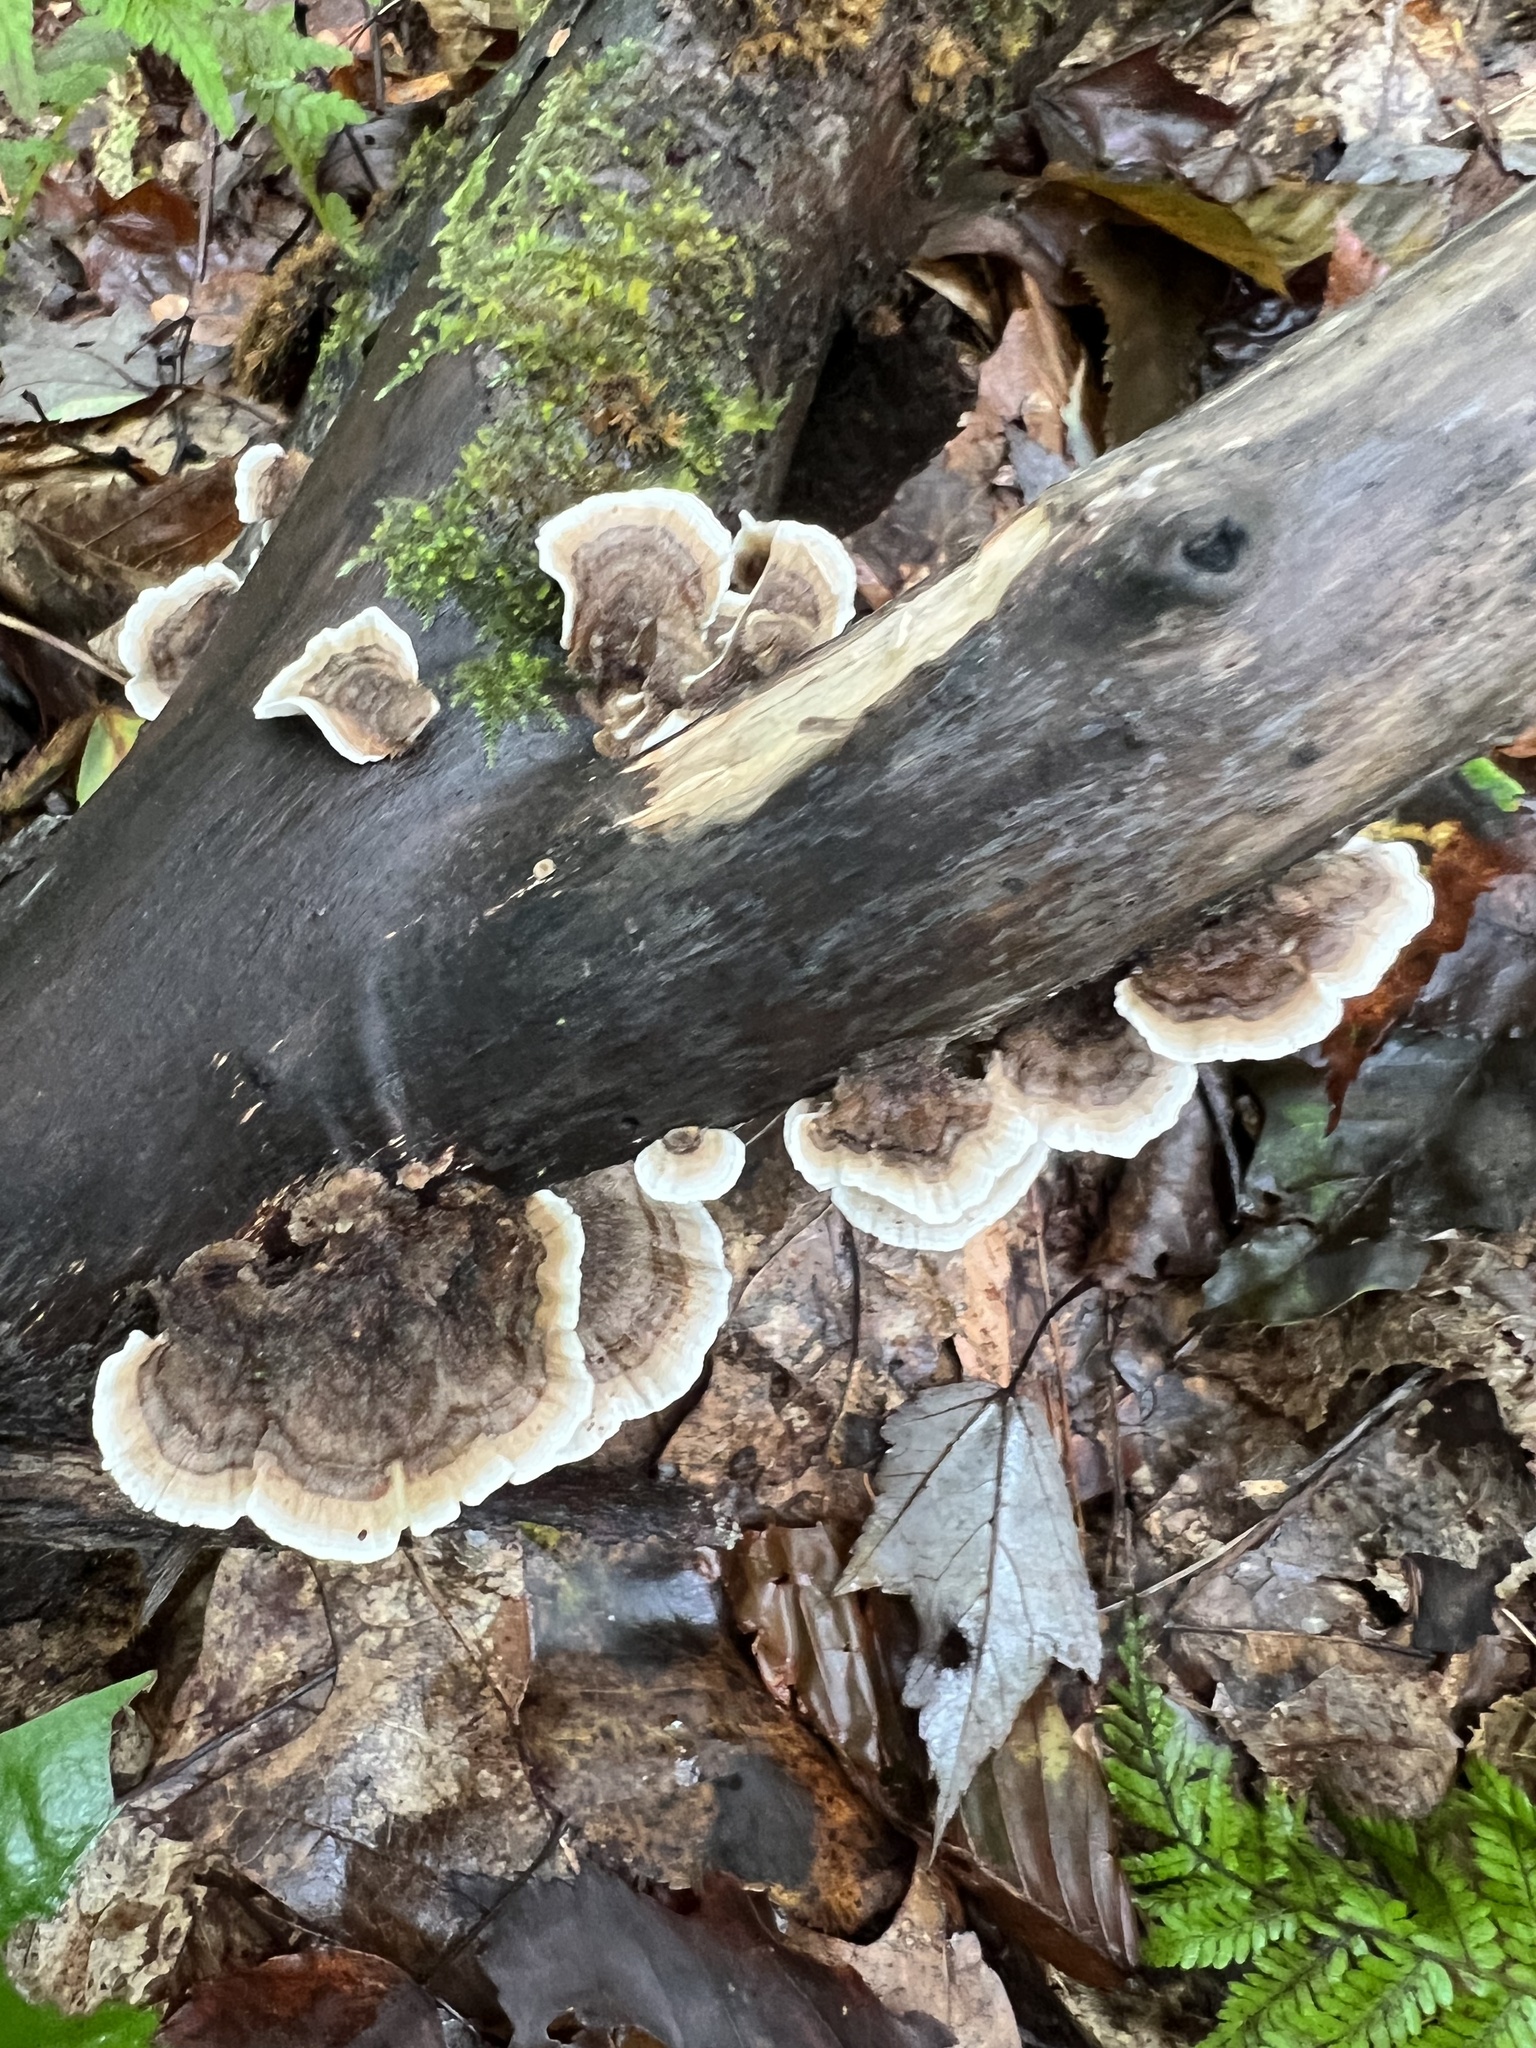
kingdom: Fungi
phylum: Basidiomycota
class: Agaricomycetes
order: Polyporales
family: Polyporaceae
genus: Trametes
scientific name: Trametes versicolor
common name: Turkeytail
